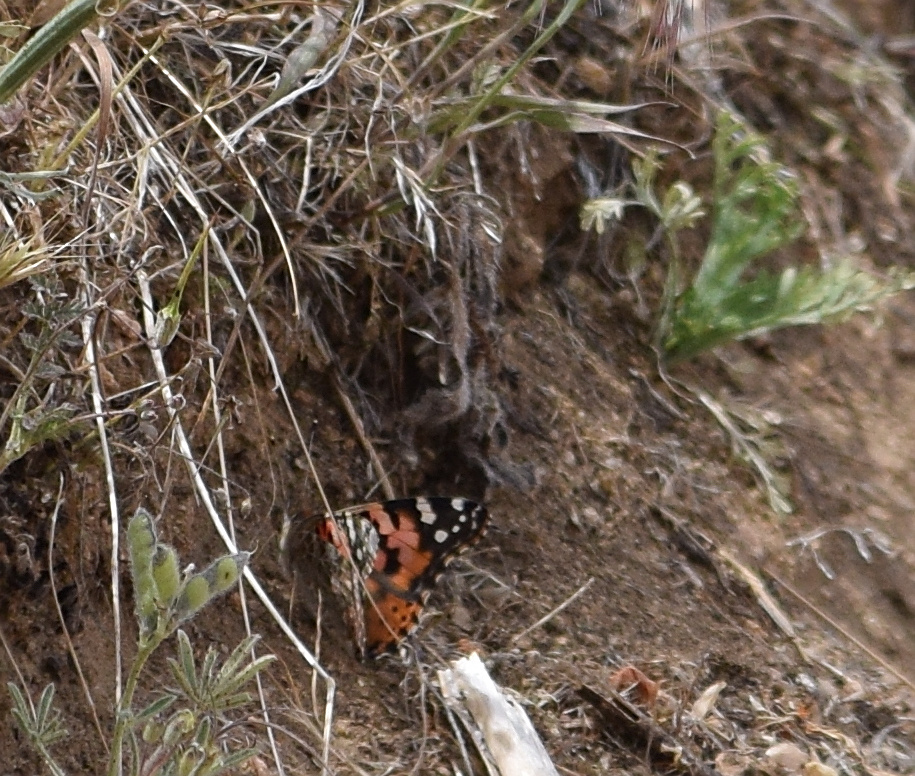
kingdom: Animalia
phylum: Arthropoda
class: Insecta
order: Lepidoptera
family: Nymphalidae
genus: Vanessa
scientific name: Vanessa cardui
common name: Painted lady
